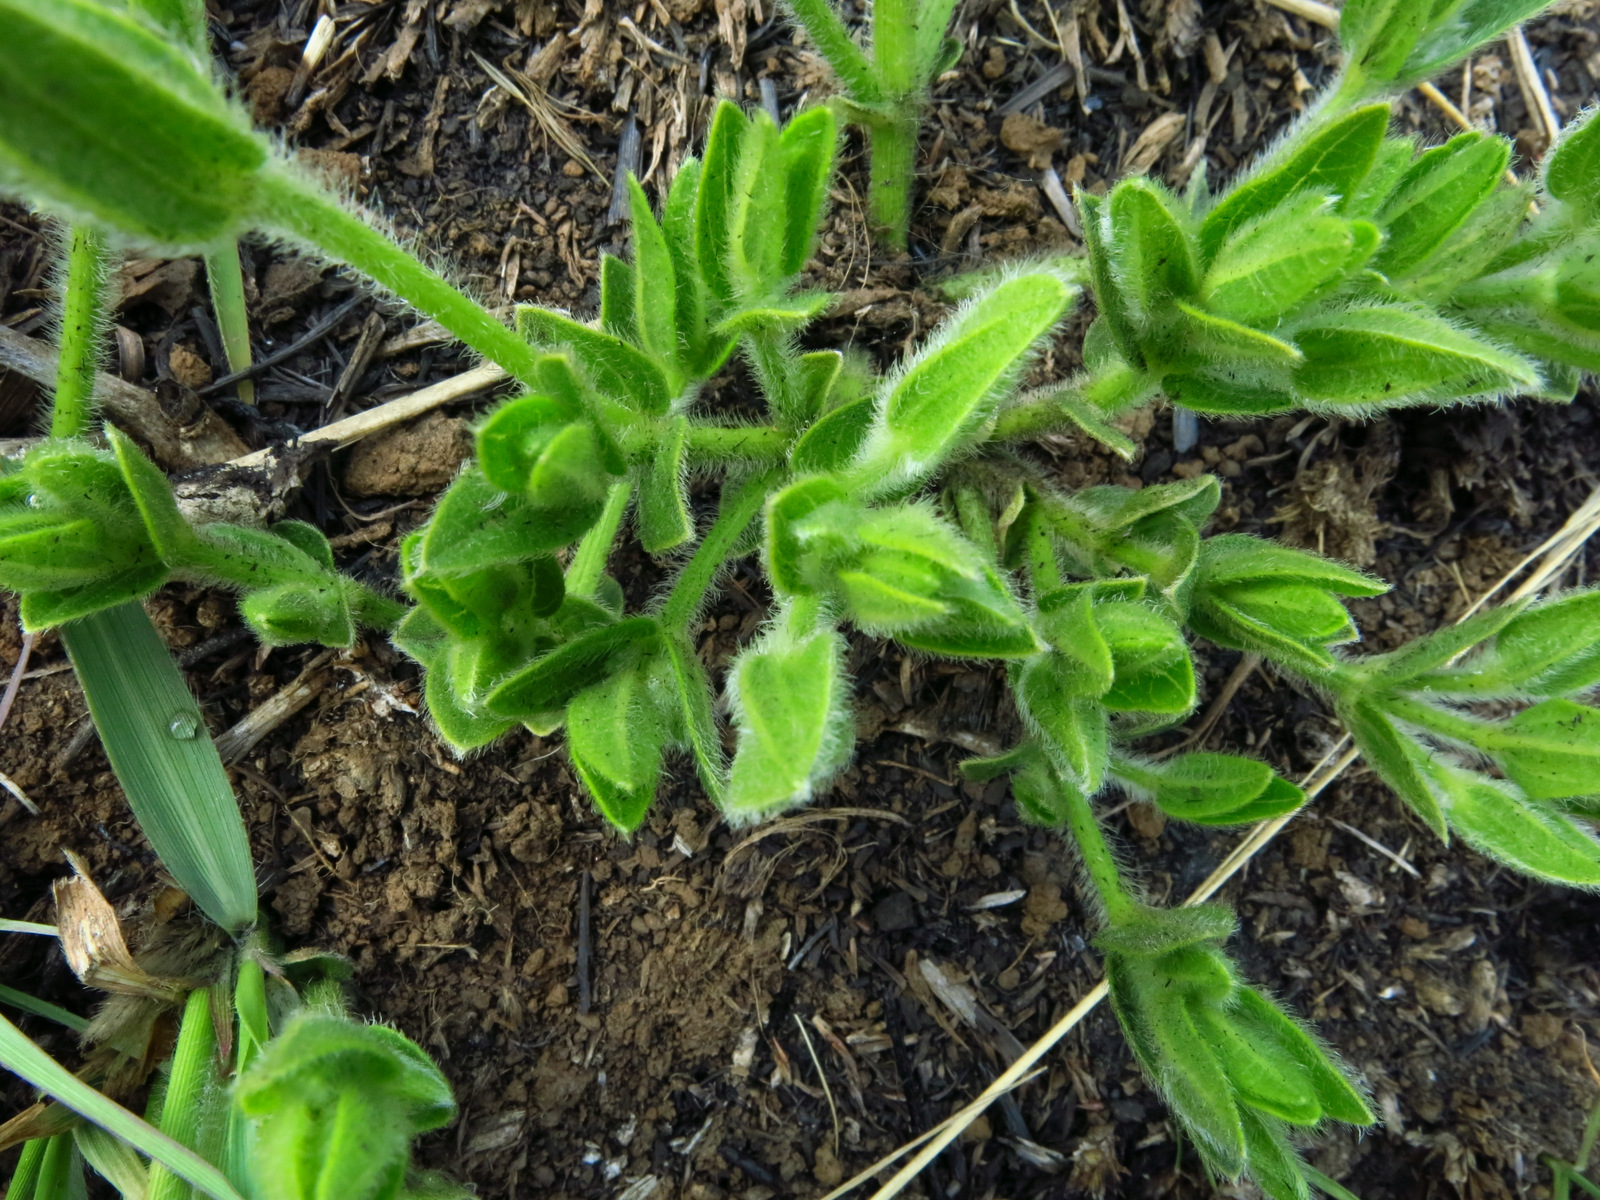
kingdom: Plantae
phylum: Tracheophyta
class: Magnoliopsida
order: Lamiales
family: Acanthaceae
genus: Thunbergia
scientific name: Thunbergia atriplicifolia
